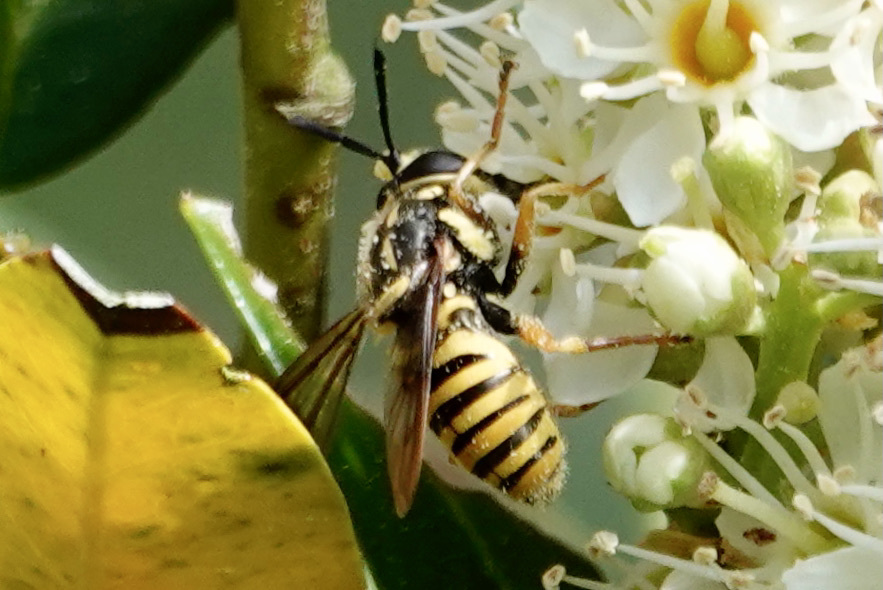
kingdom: Animalia
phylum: Arthropoda
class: Insecta
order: Diptera
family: Syrphidae
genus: Sphecomyia
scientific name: Sphecomyia vittata
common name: Long-horned yellowjacket fly
